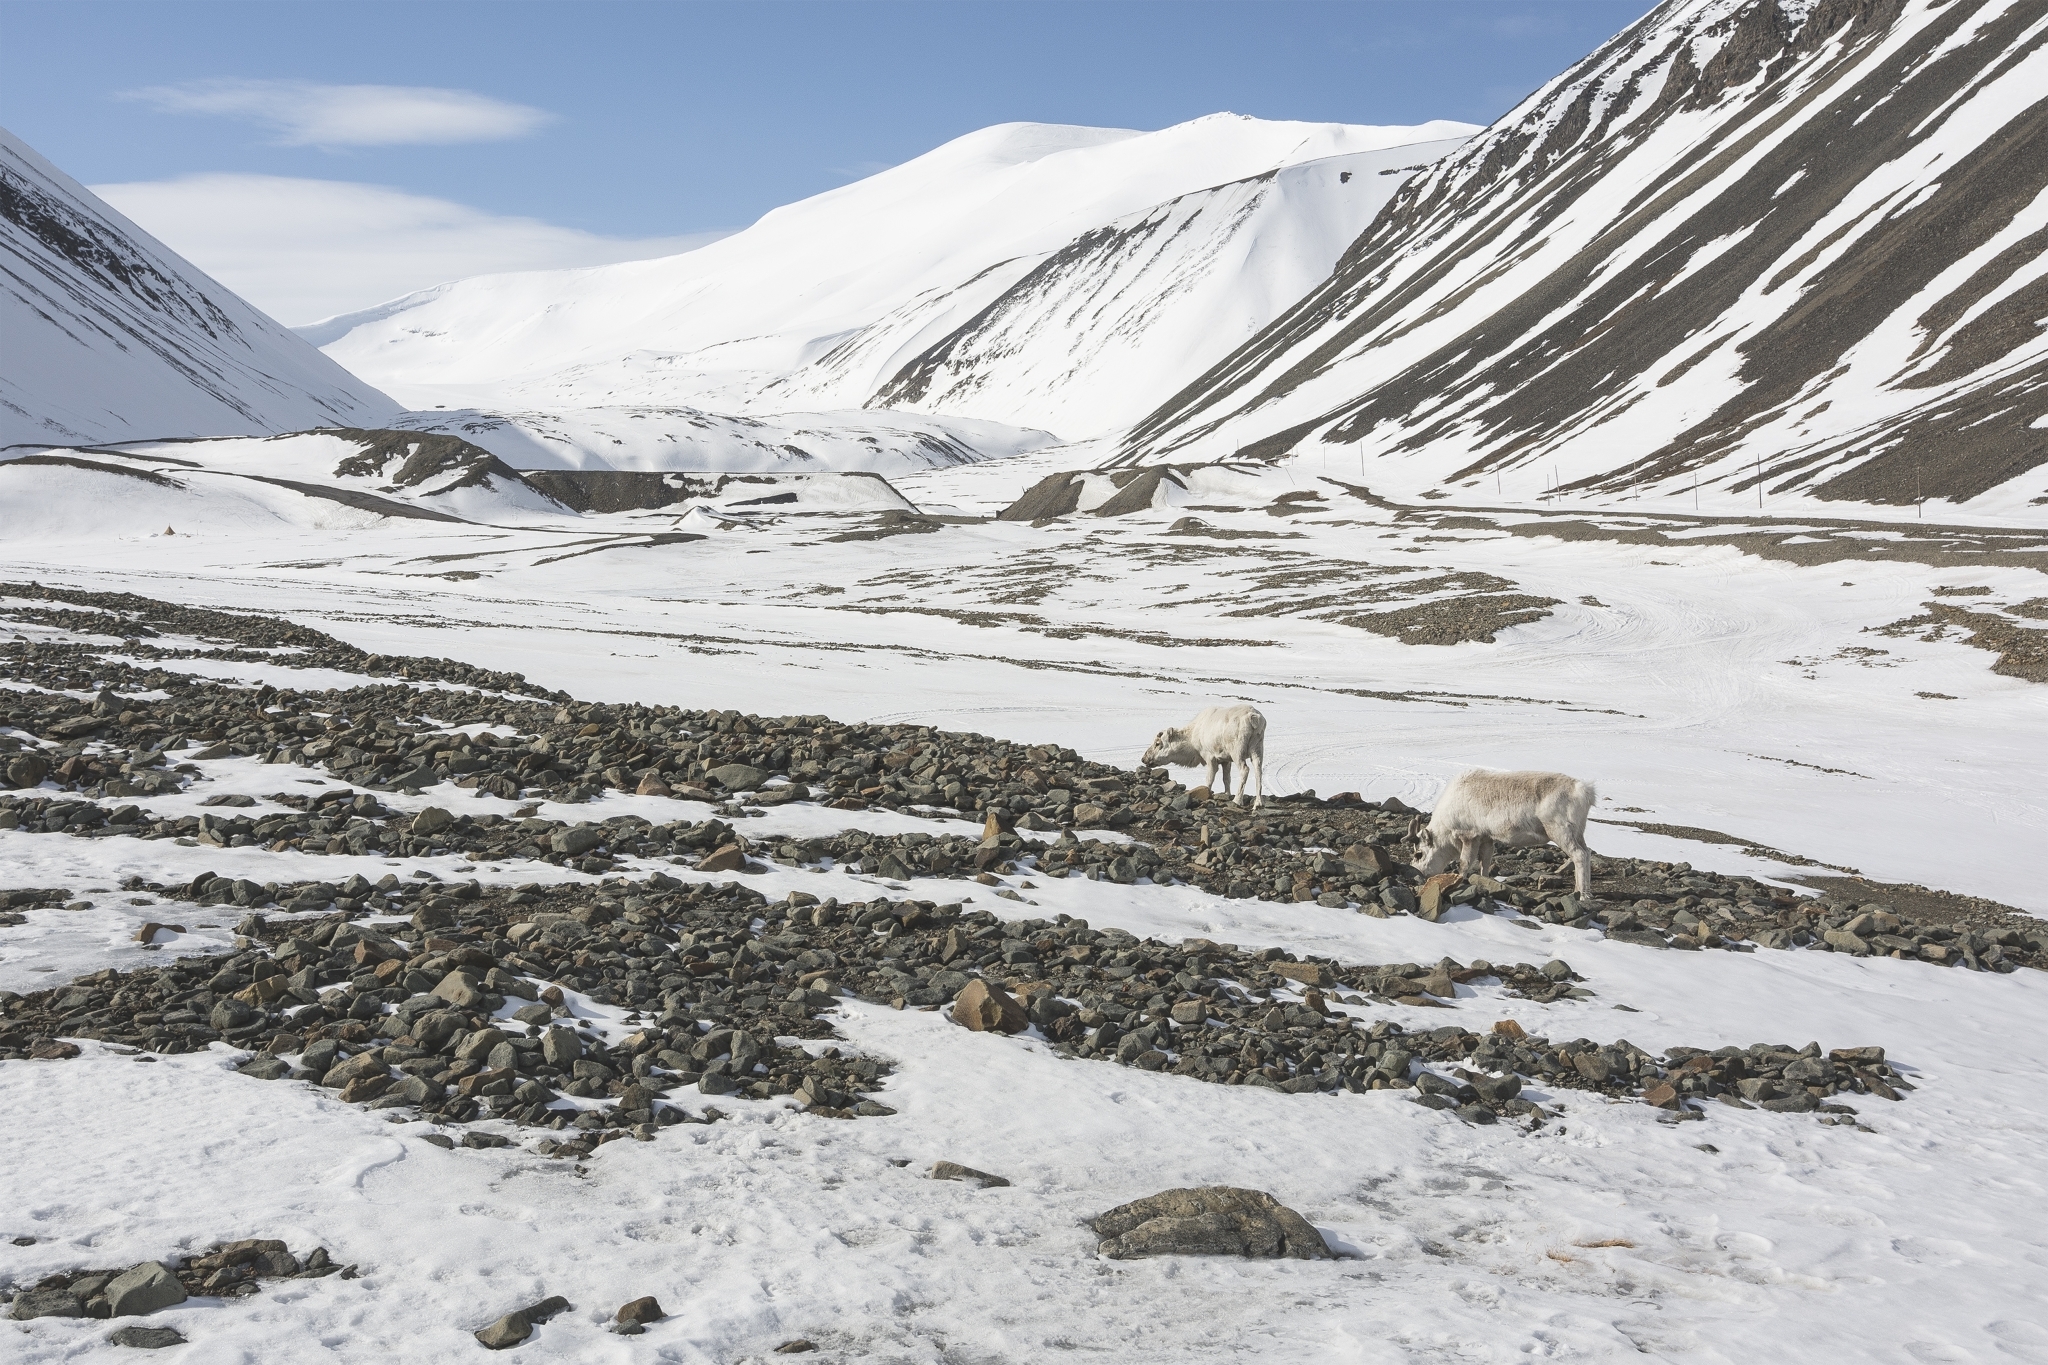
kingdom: Animalia
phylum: Chordata
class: Mammalia
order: Artiodactyla
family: Cervidae
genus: Rangifer
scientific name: Rangifer tarandus
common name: Reindeer
